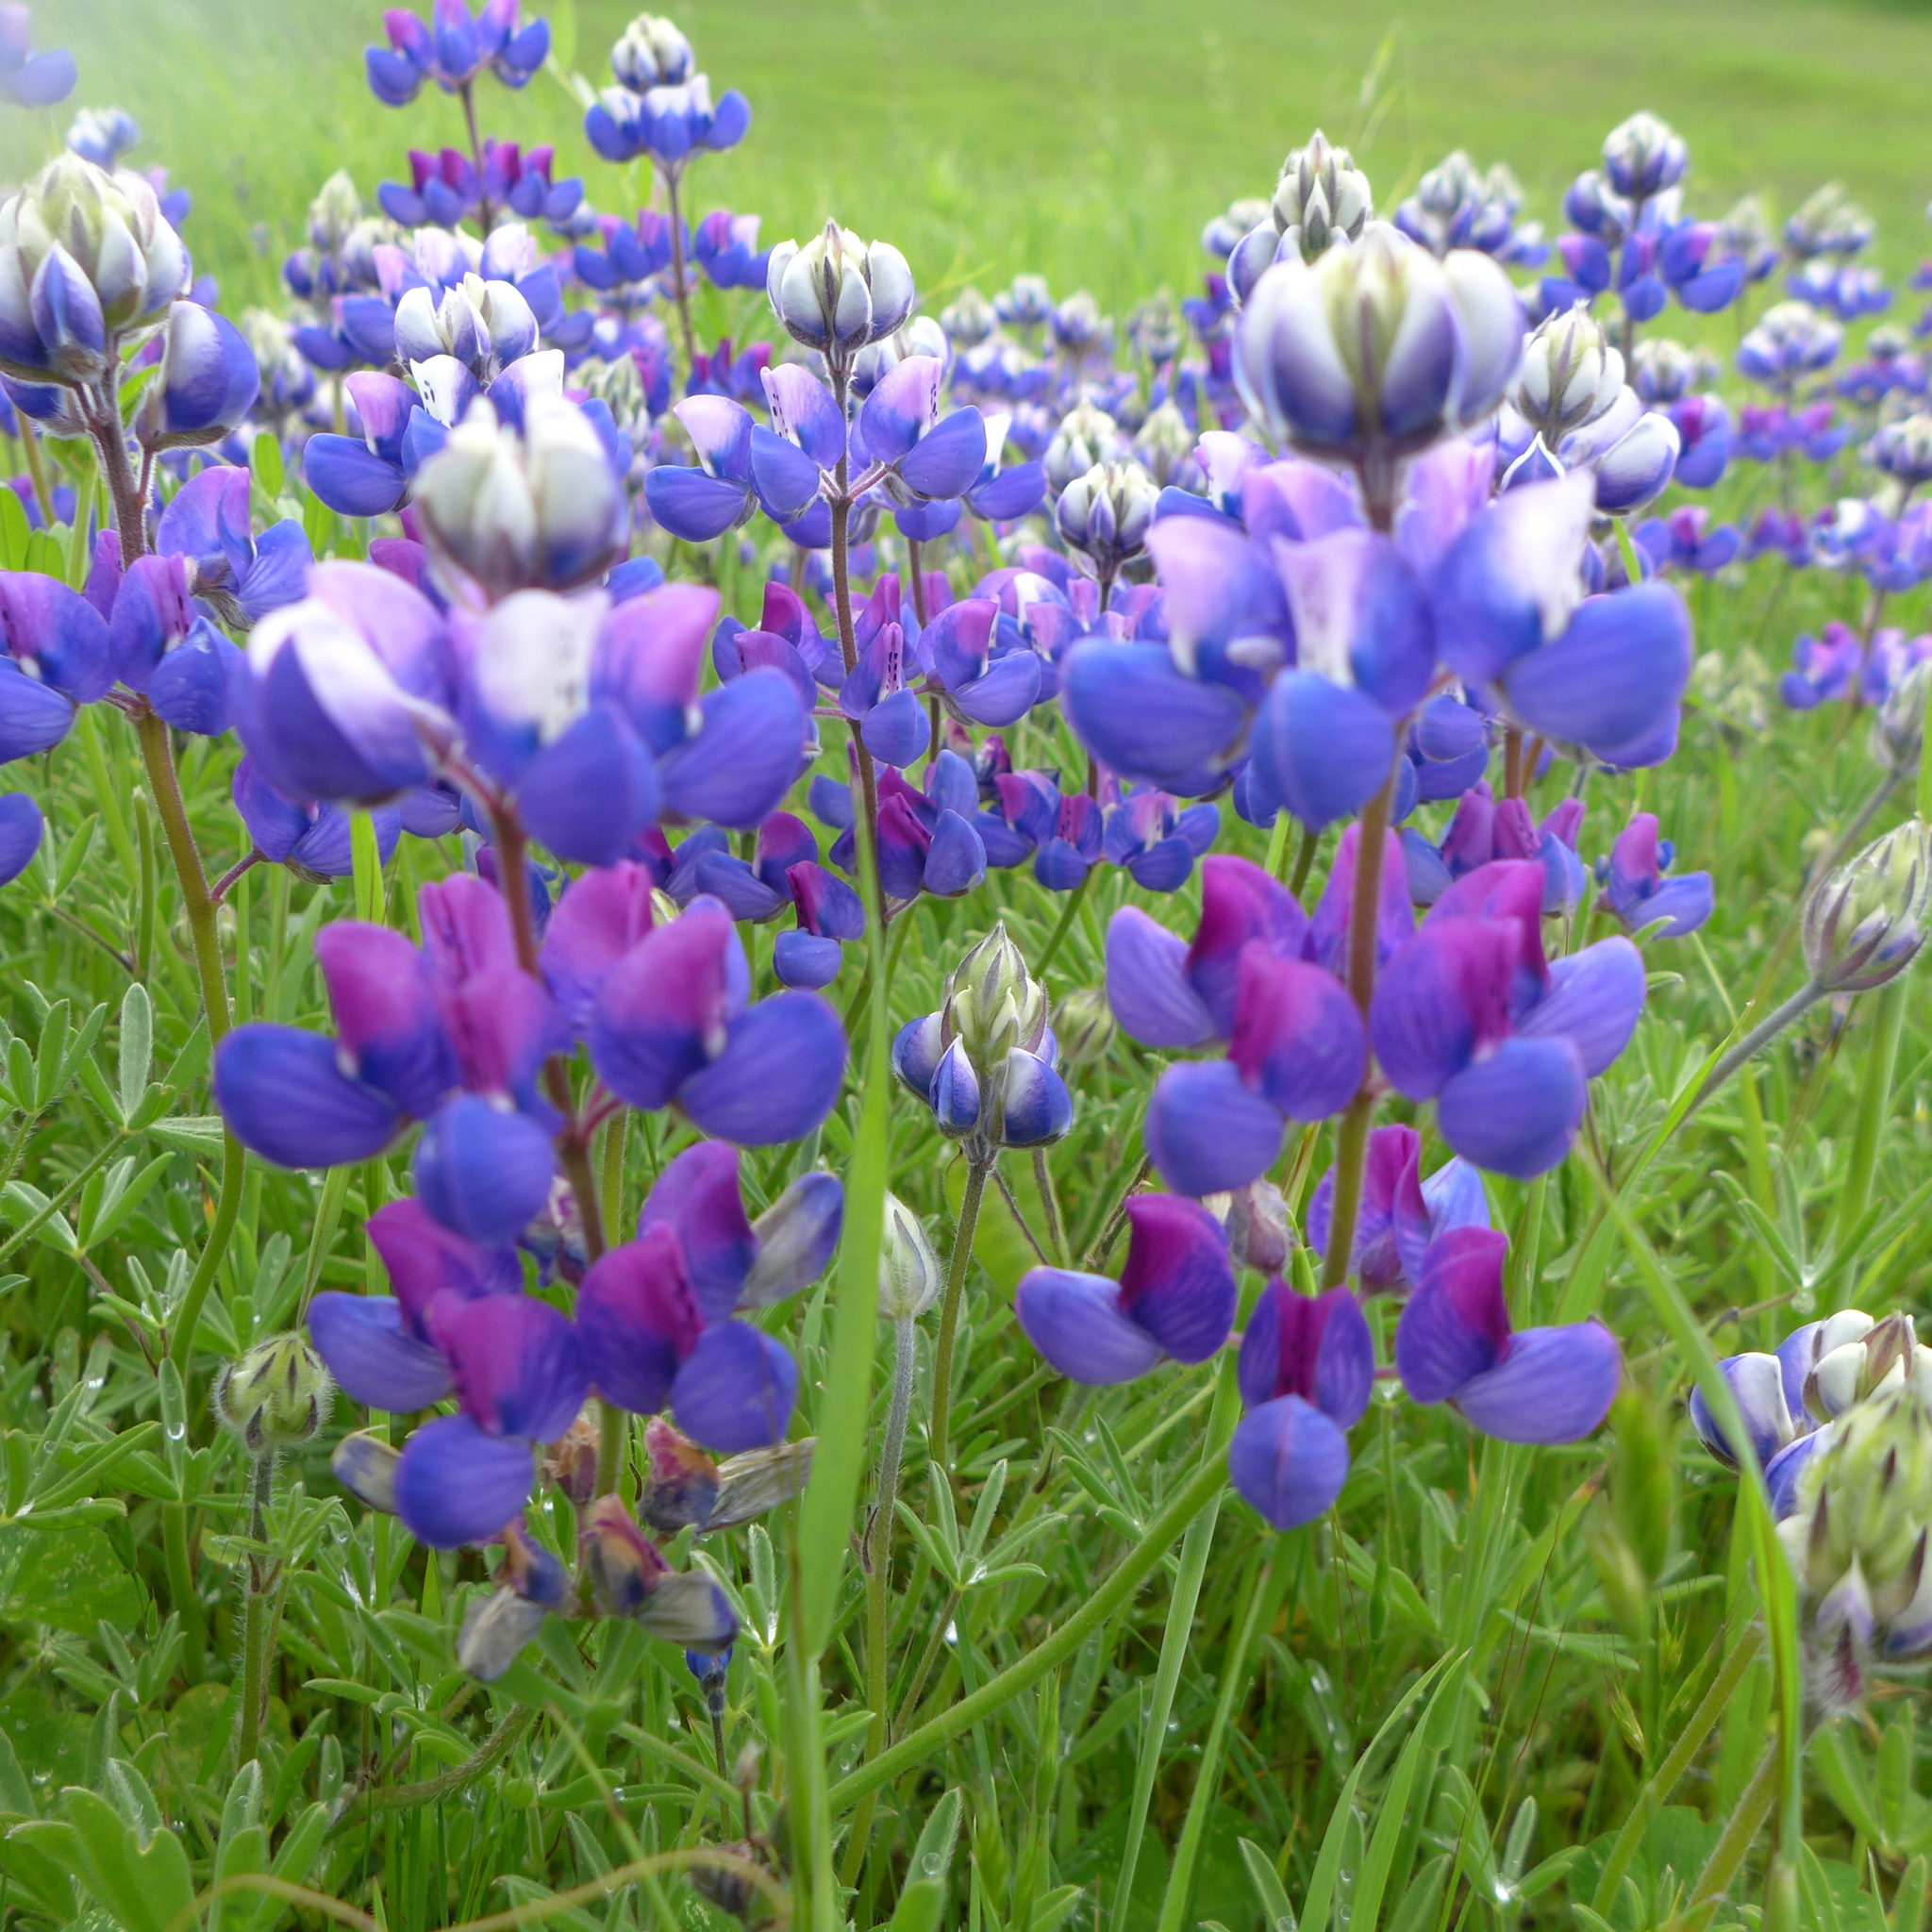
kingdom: Plantae
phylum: Tracheophyta
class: Magnoliopsida
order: Fabales
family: Fabaceae
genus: Lupinus
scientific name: Lupinus nanus
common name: Orean blue lupin
